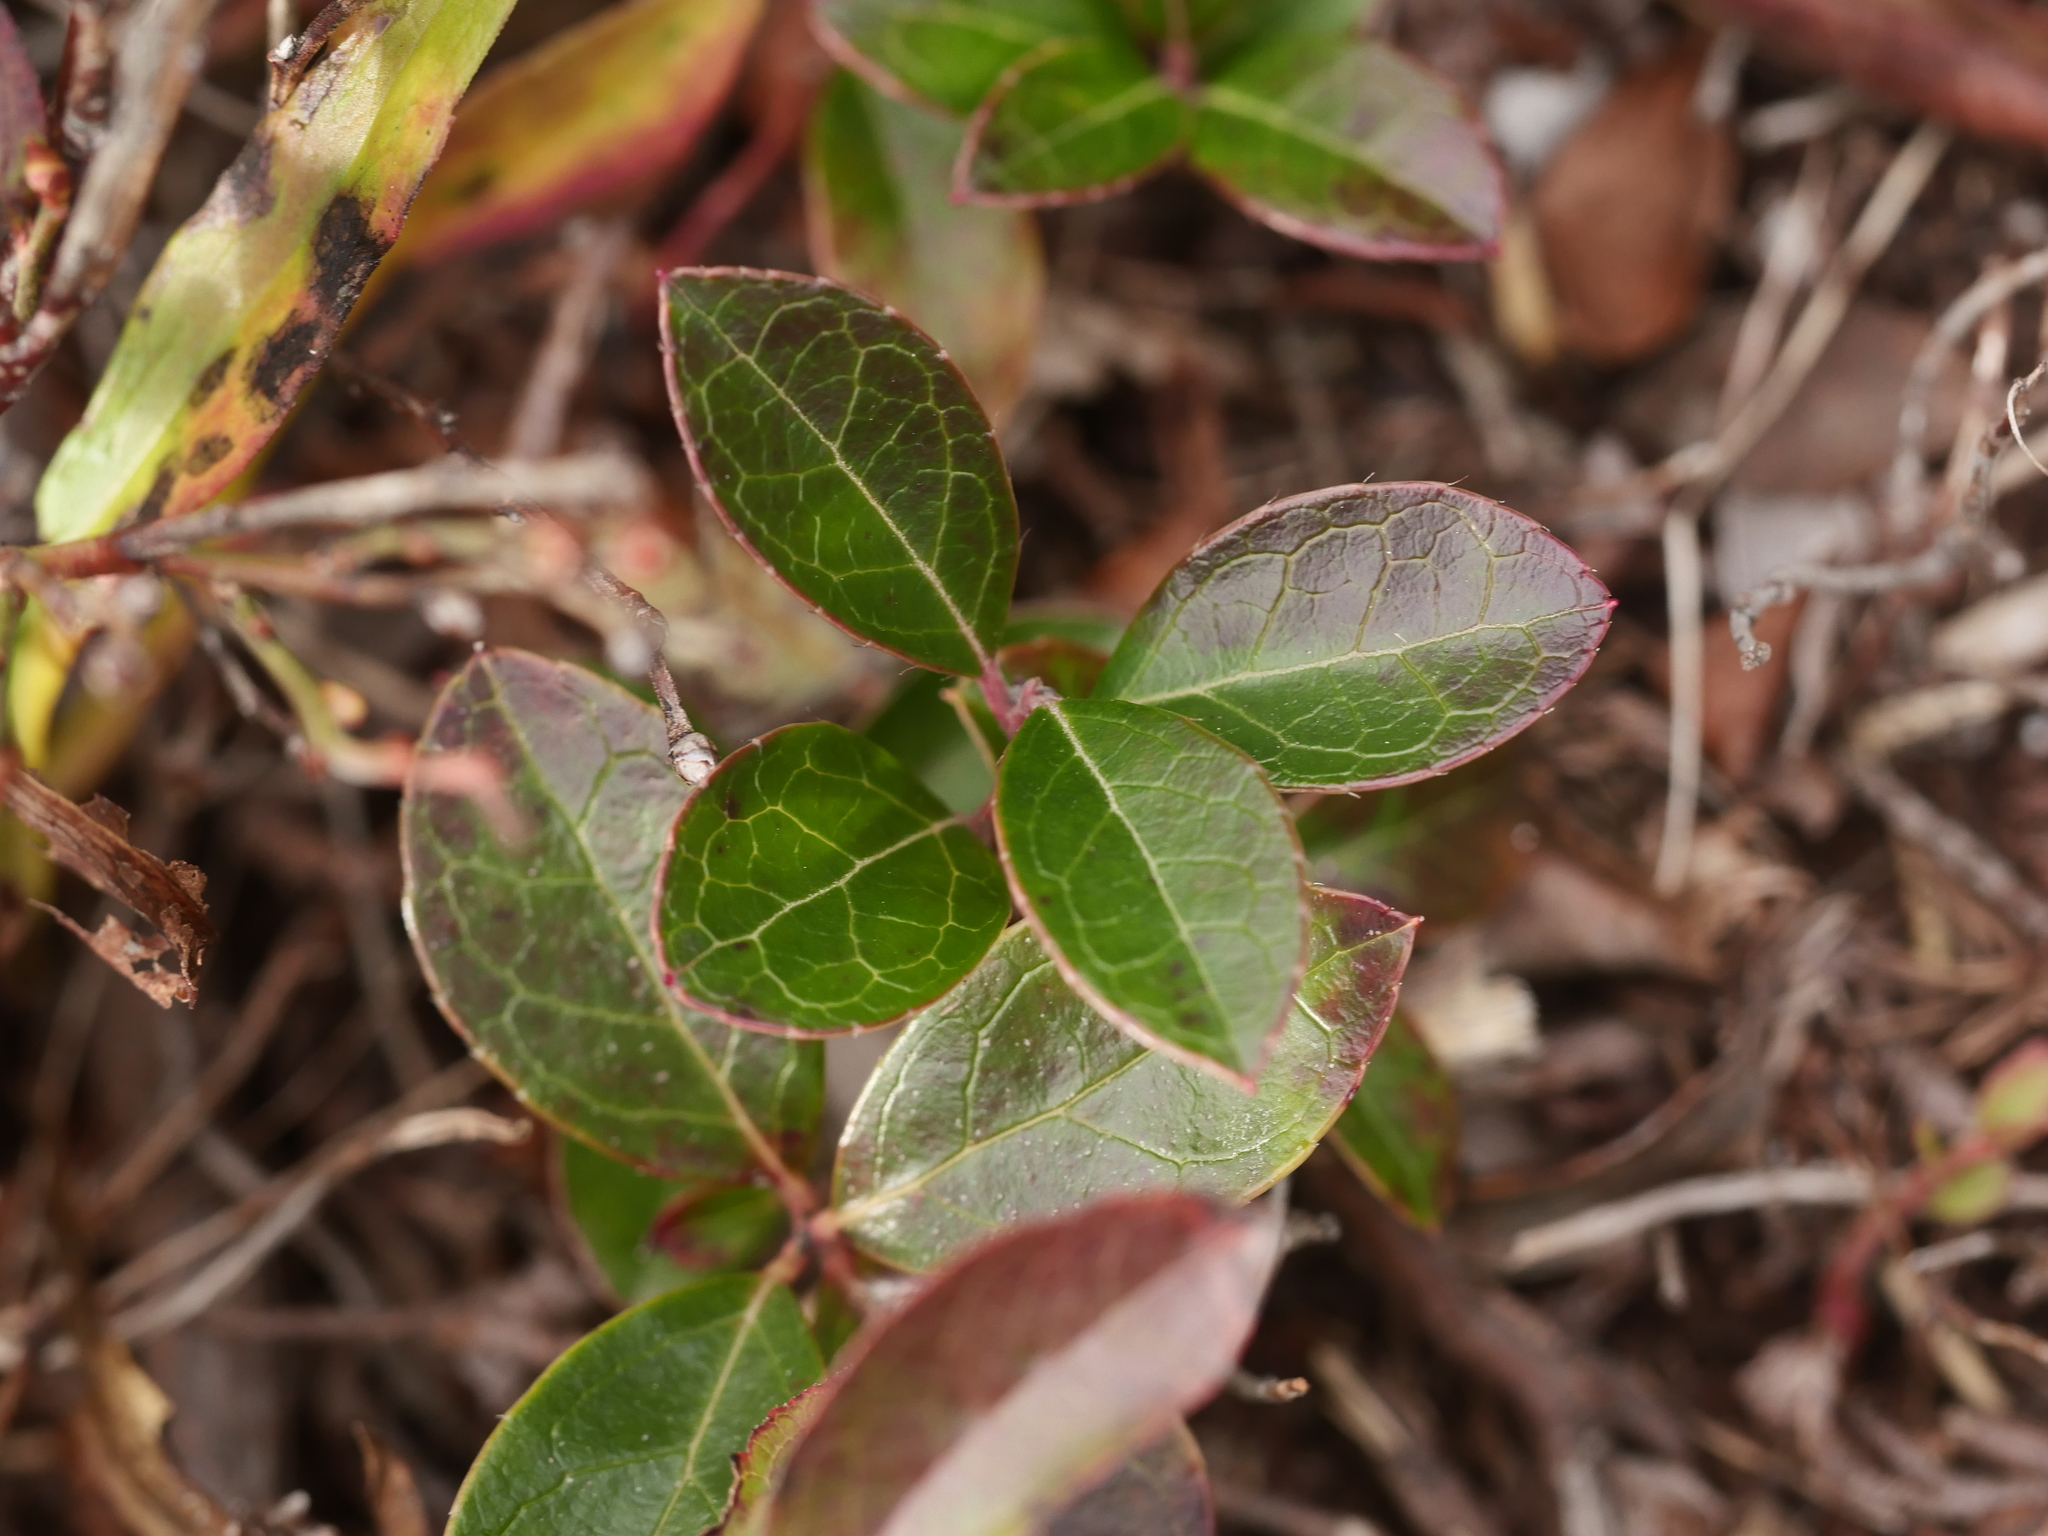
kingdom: Plantae
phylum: Tracheophyta
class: Magnoliopsida
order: Ericales
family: Ericaceae
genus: Gaultheria
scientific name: Gaultheria procumbens
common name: Checkerberry
